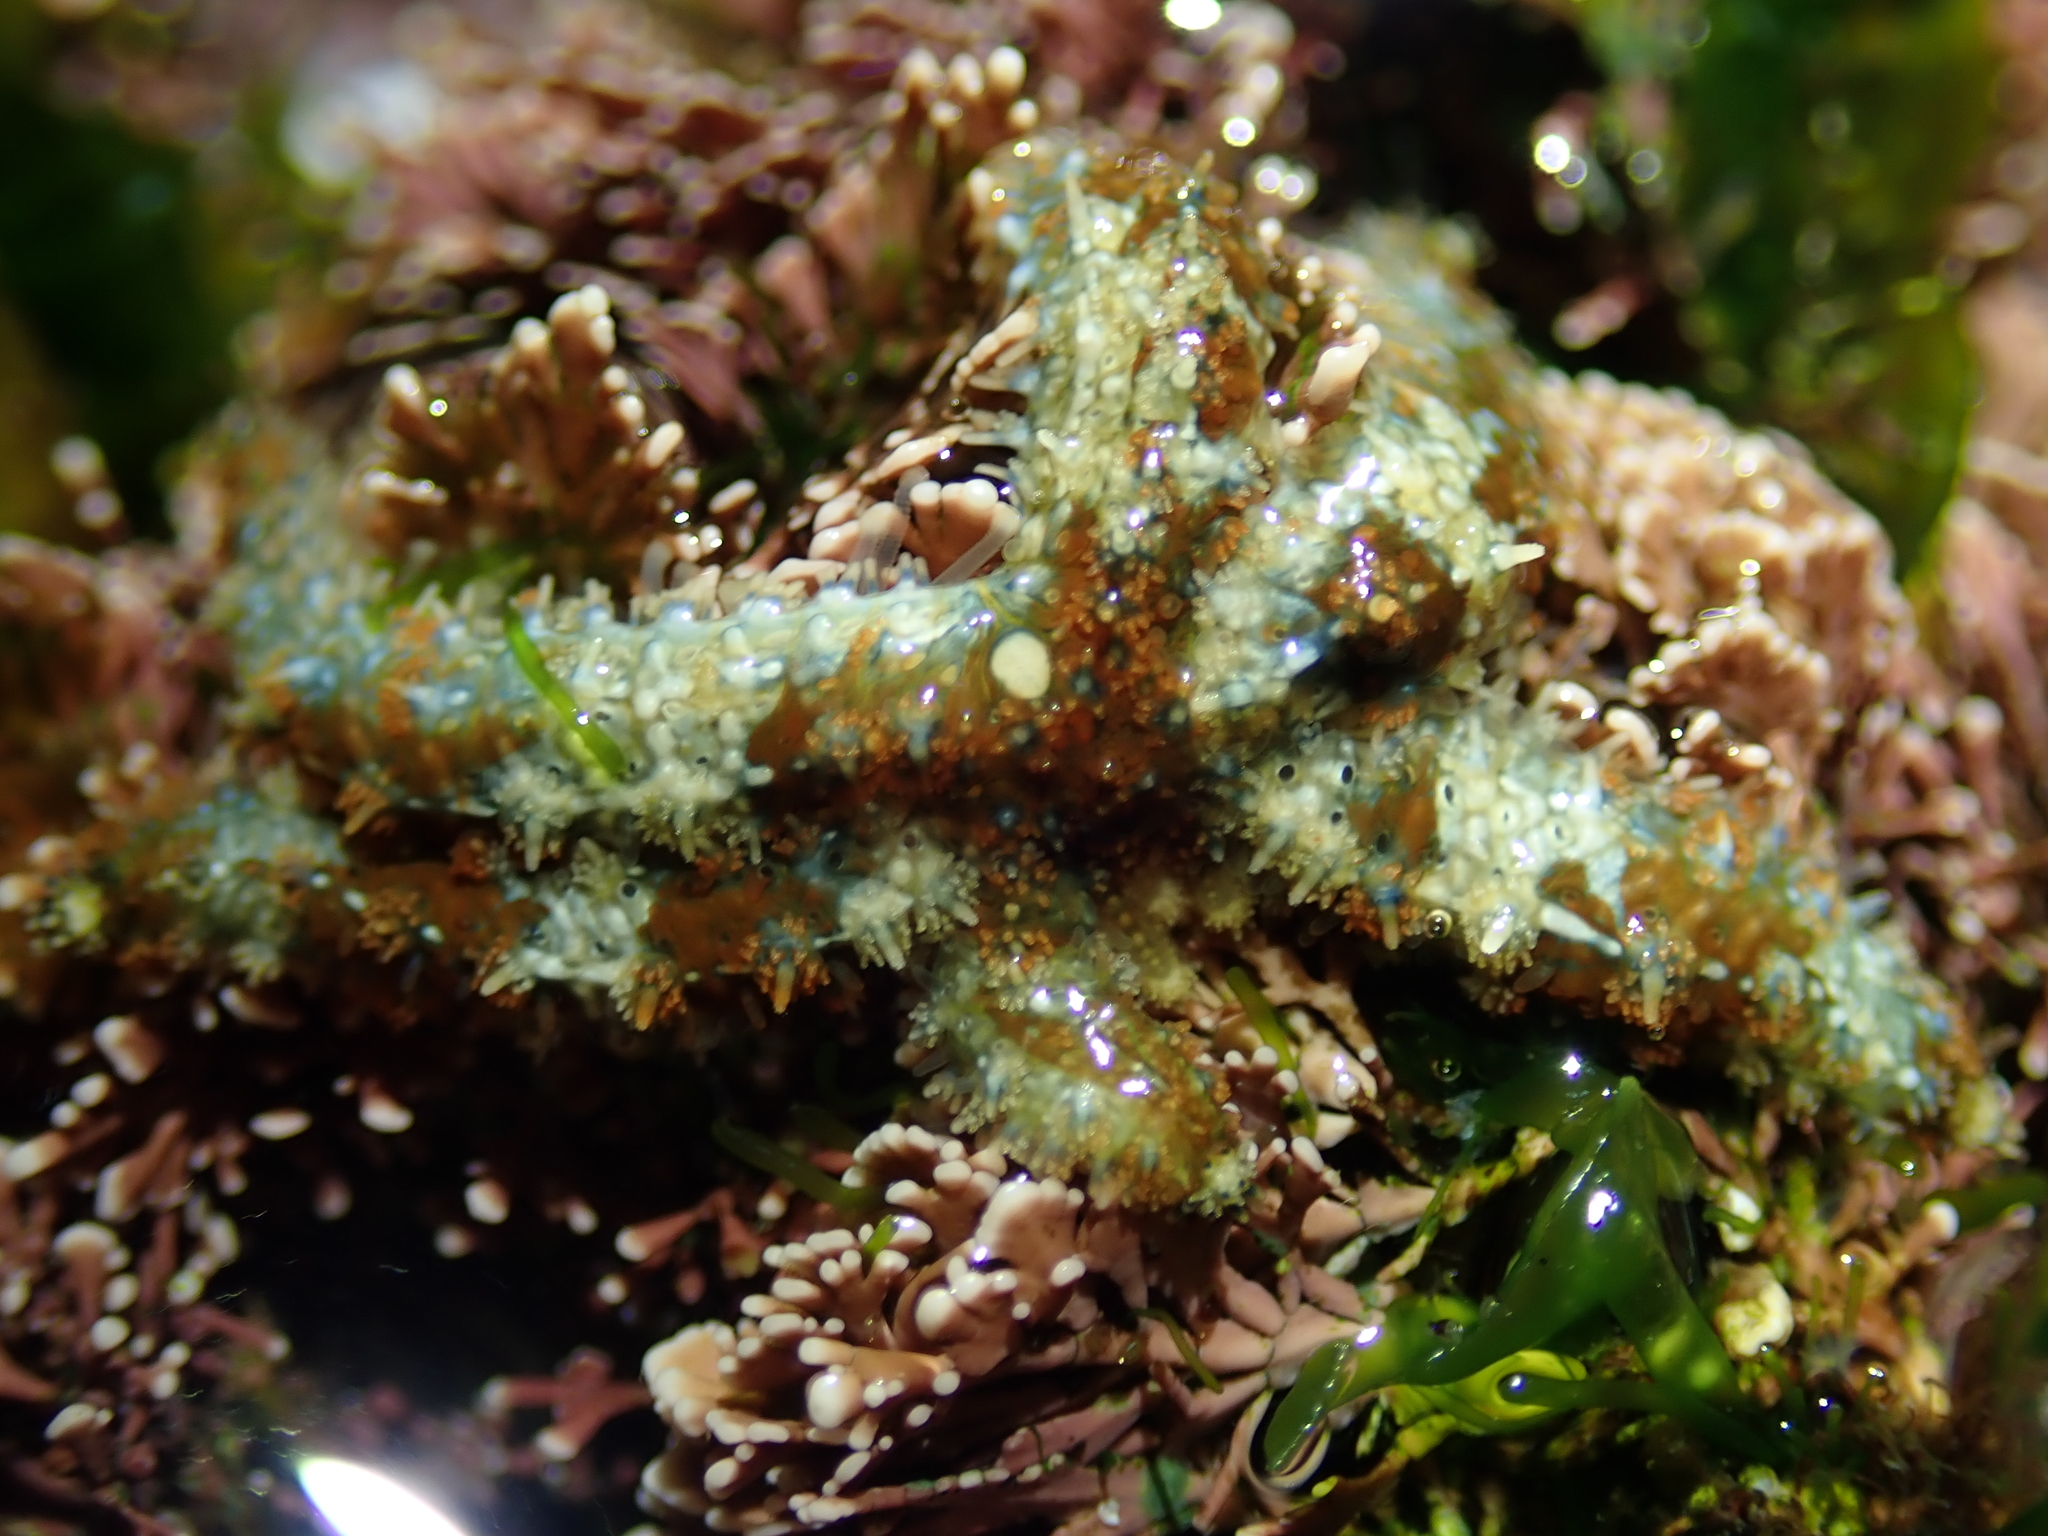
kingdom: Animalia
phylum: Echinodermata
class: Asteroidea
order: Forcipulatida
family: Asteriidae
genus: Coscinasterias
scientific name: Coscinasterias muricata
